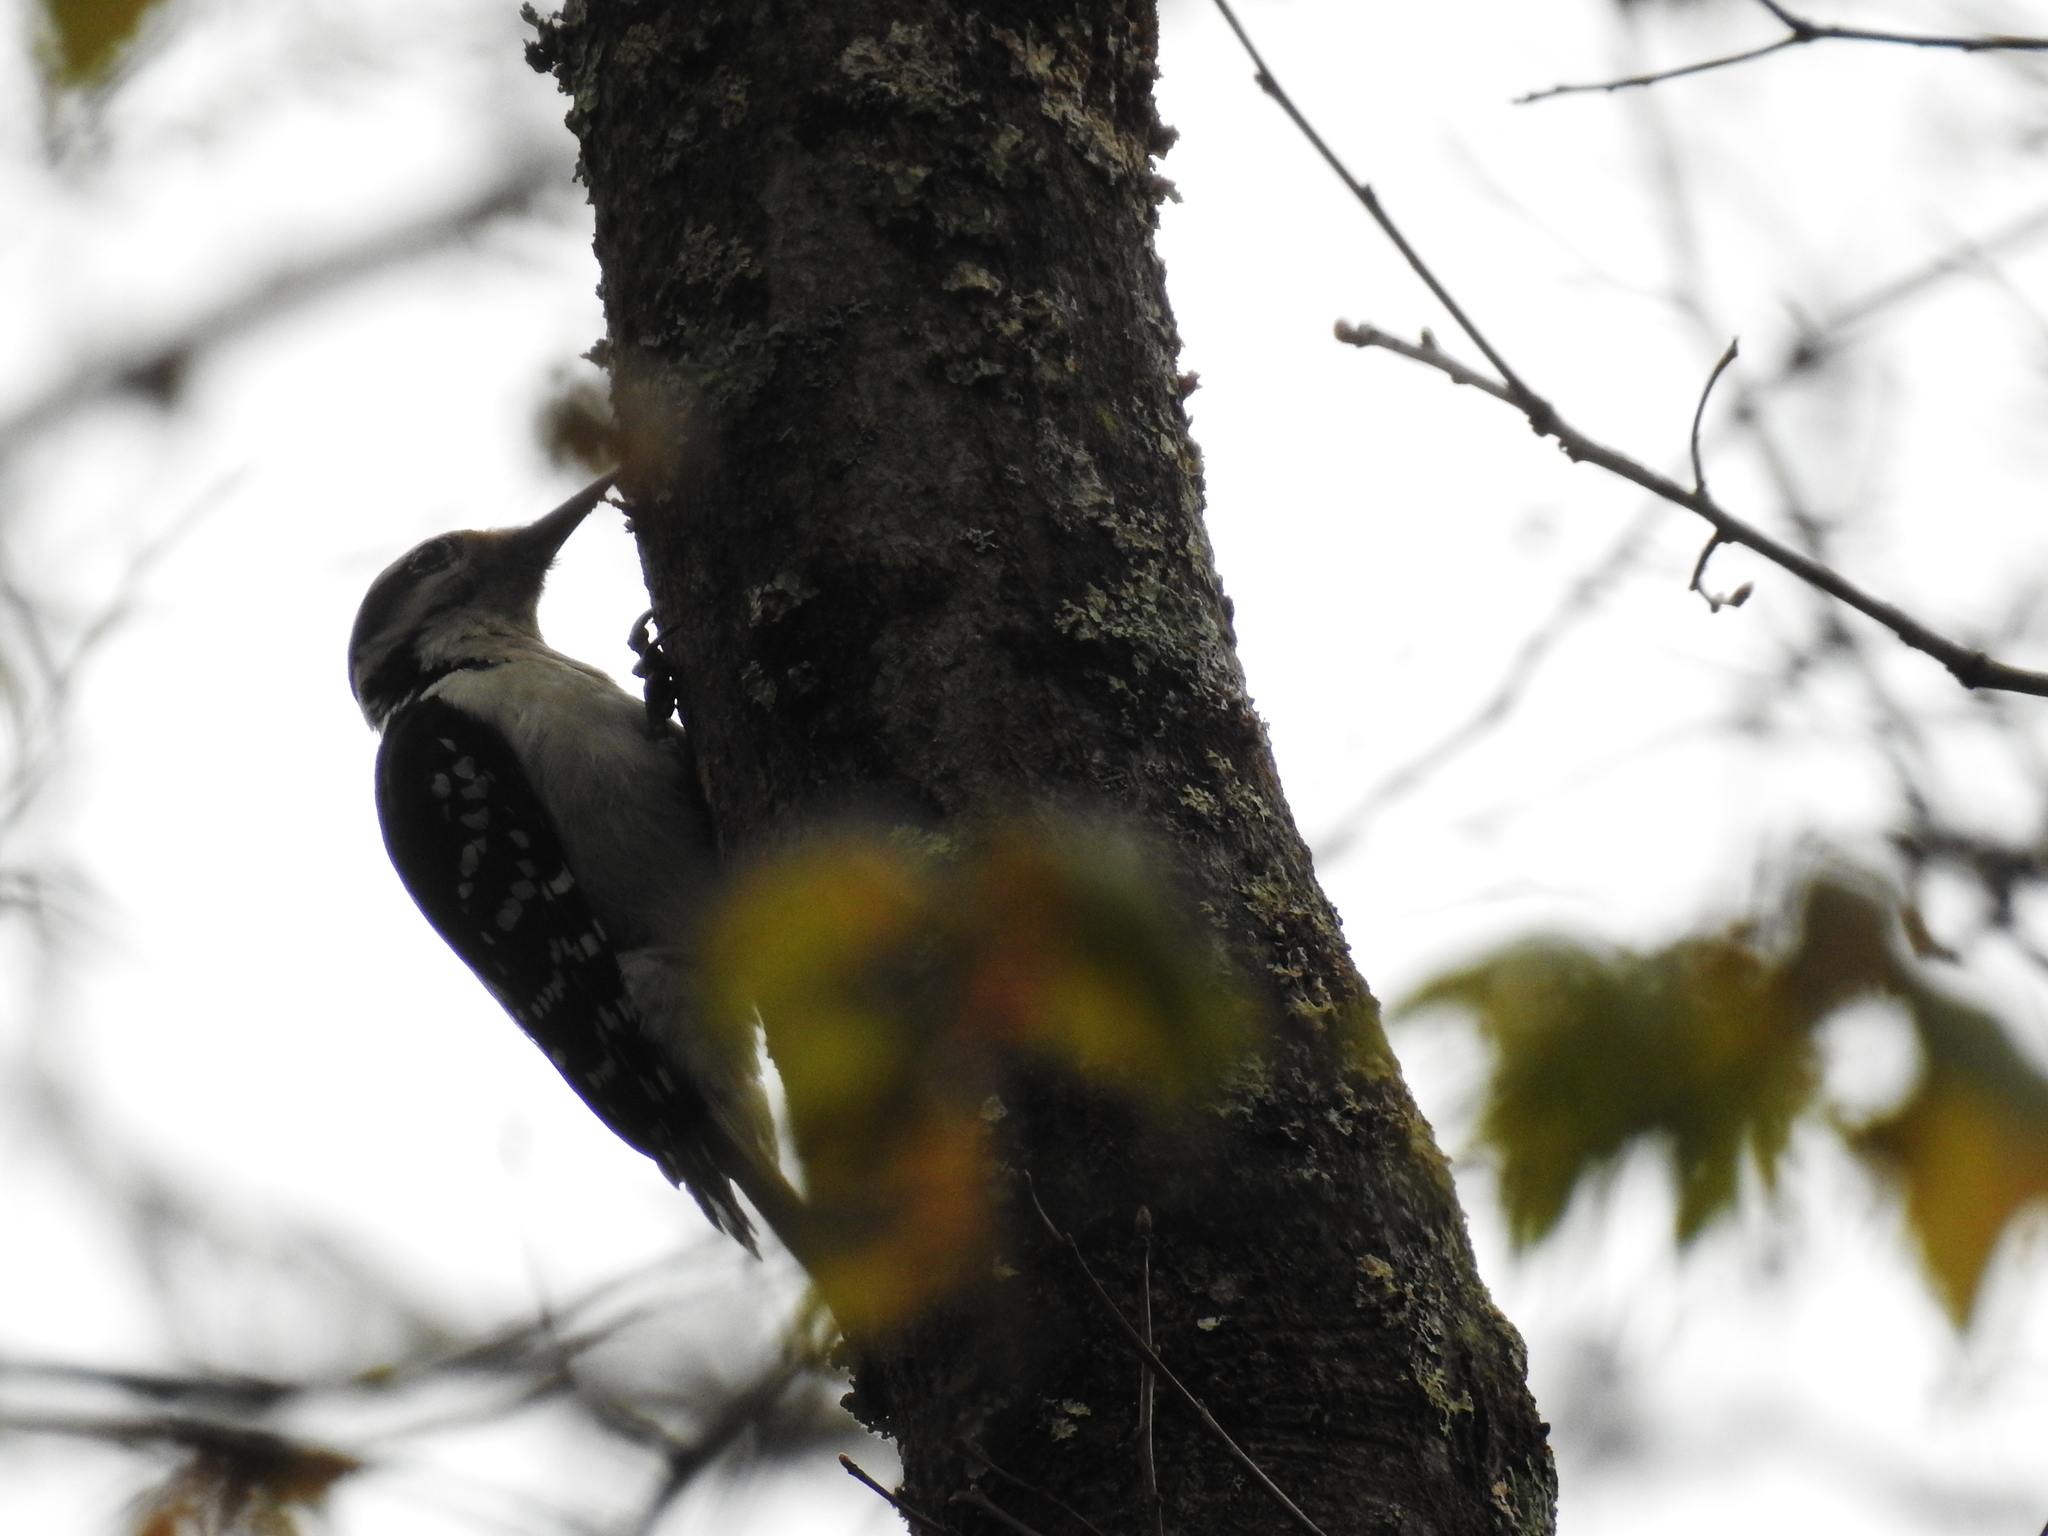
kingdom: Animalia
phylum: Chordata
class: Aves
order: Piciformes
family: Picidae
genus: Leuconotopicus
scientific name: Leuconotopicus villosus
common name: Hairy woodpecker
